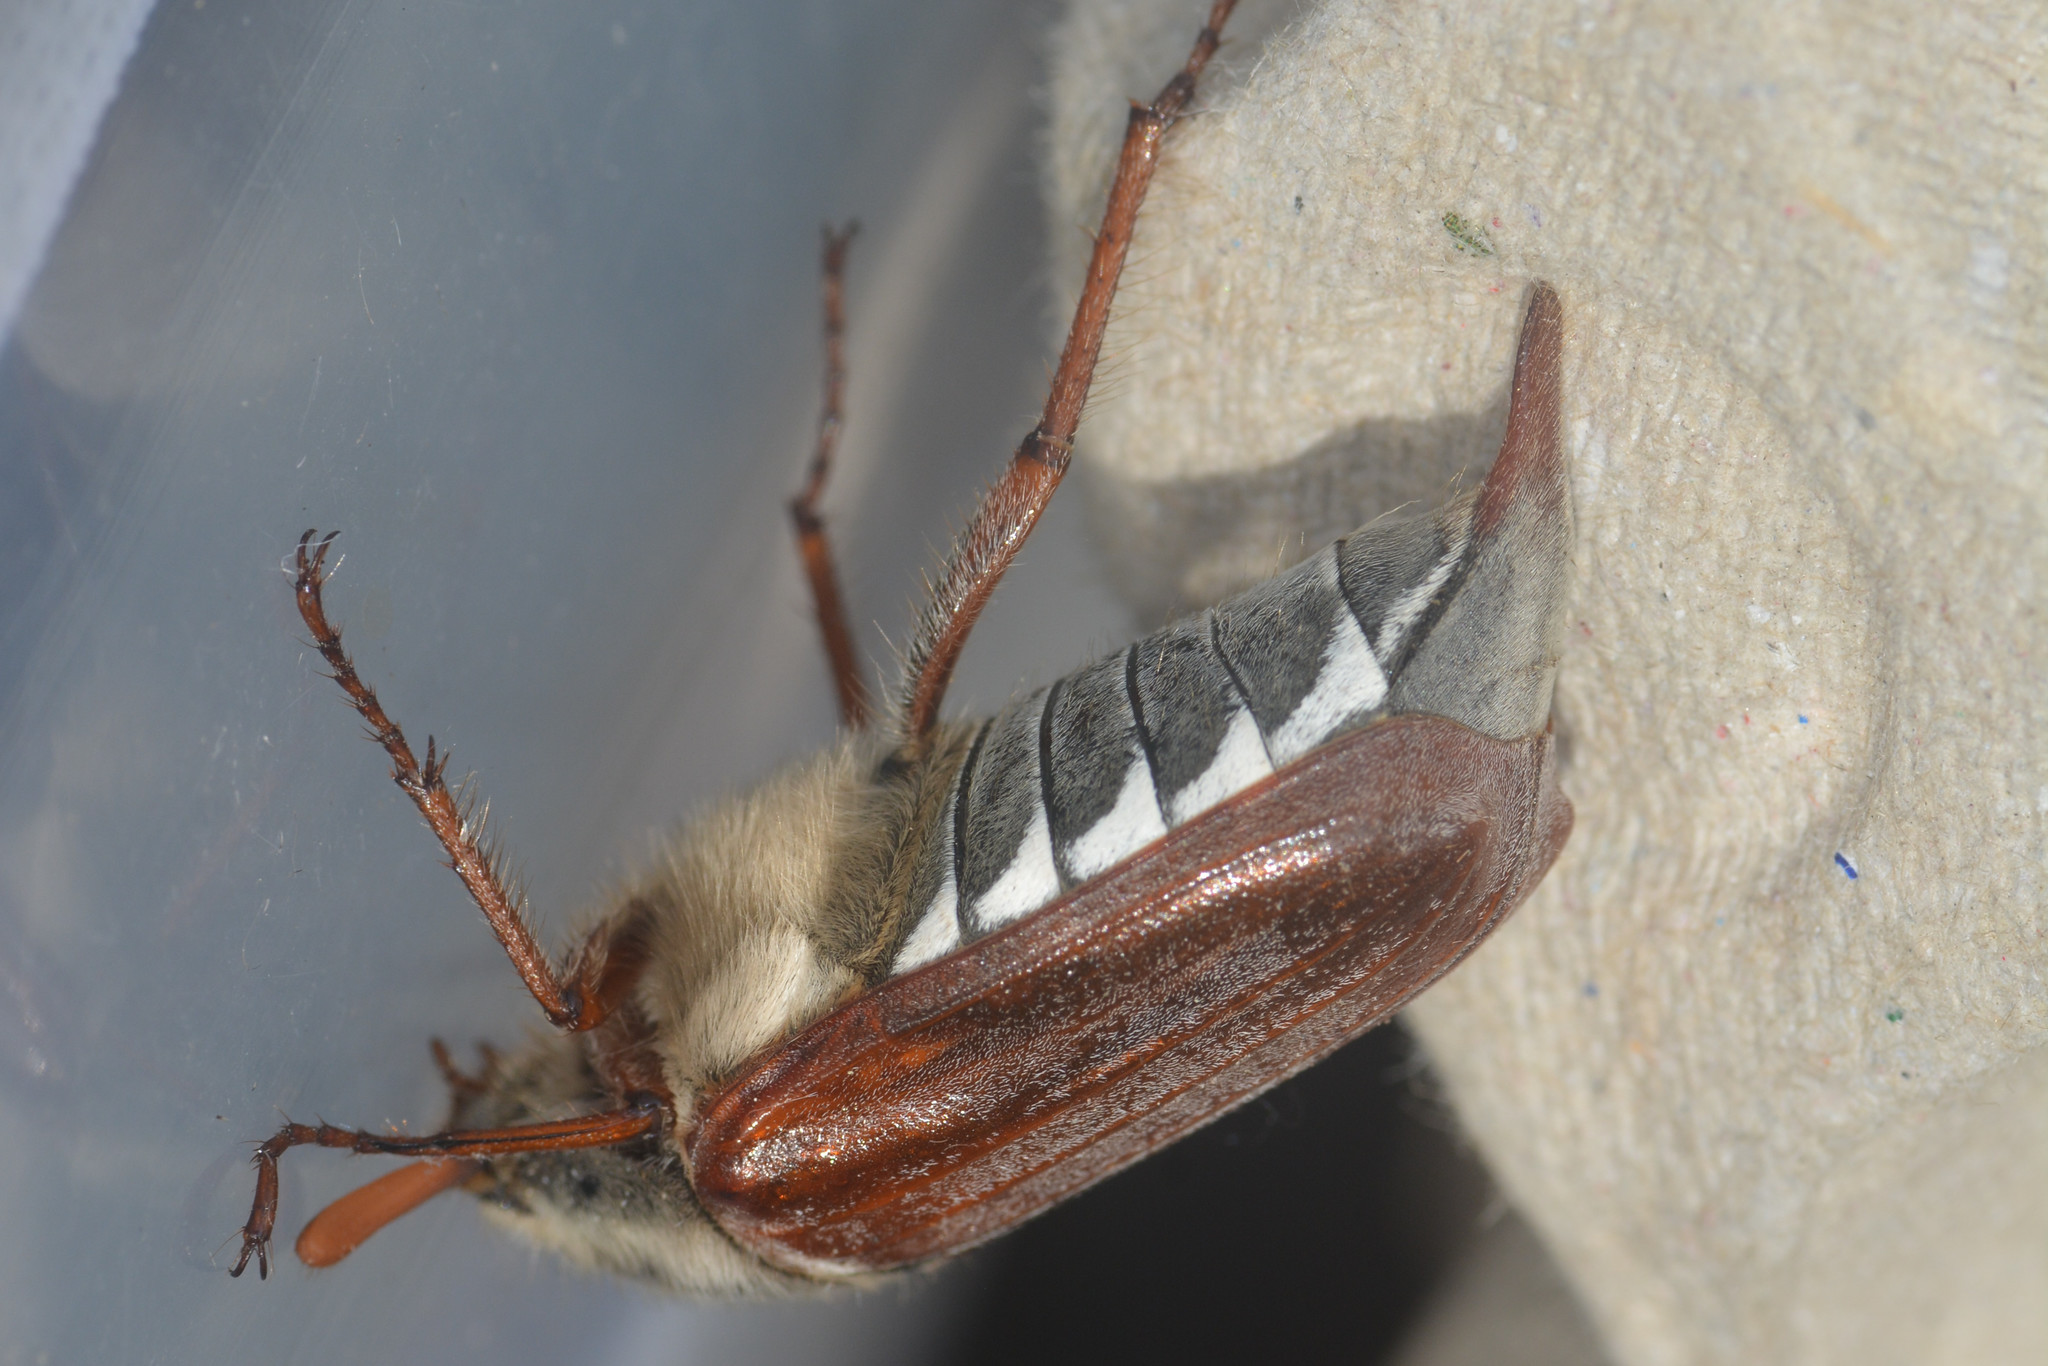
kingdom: Animalia
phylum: Arthropoda
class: Insecta
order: Coleoptera
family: Scarabaeidae
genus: Melolontha
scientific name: Melolontha melolontha
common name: Cockchafer maybeetle
